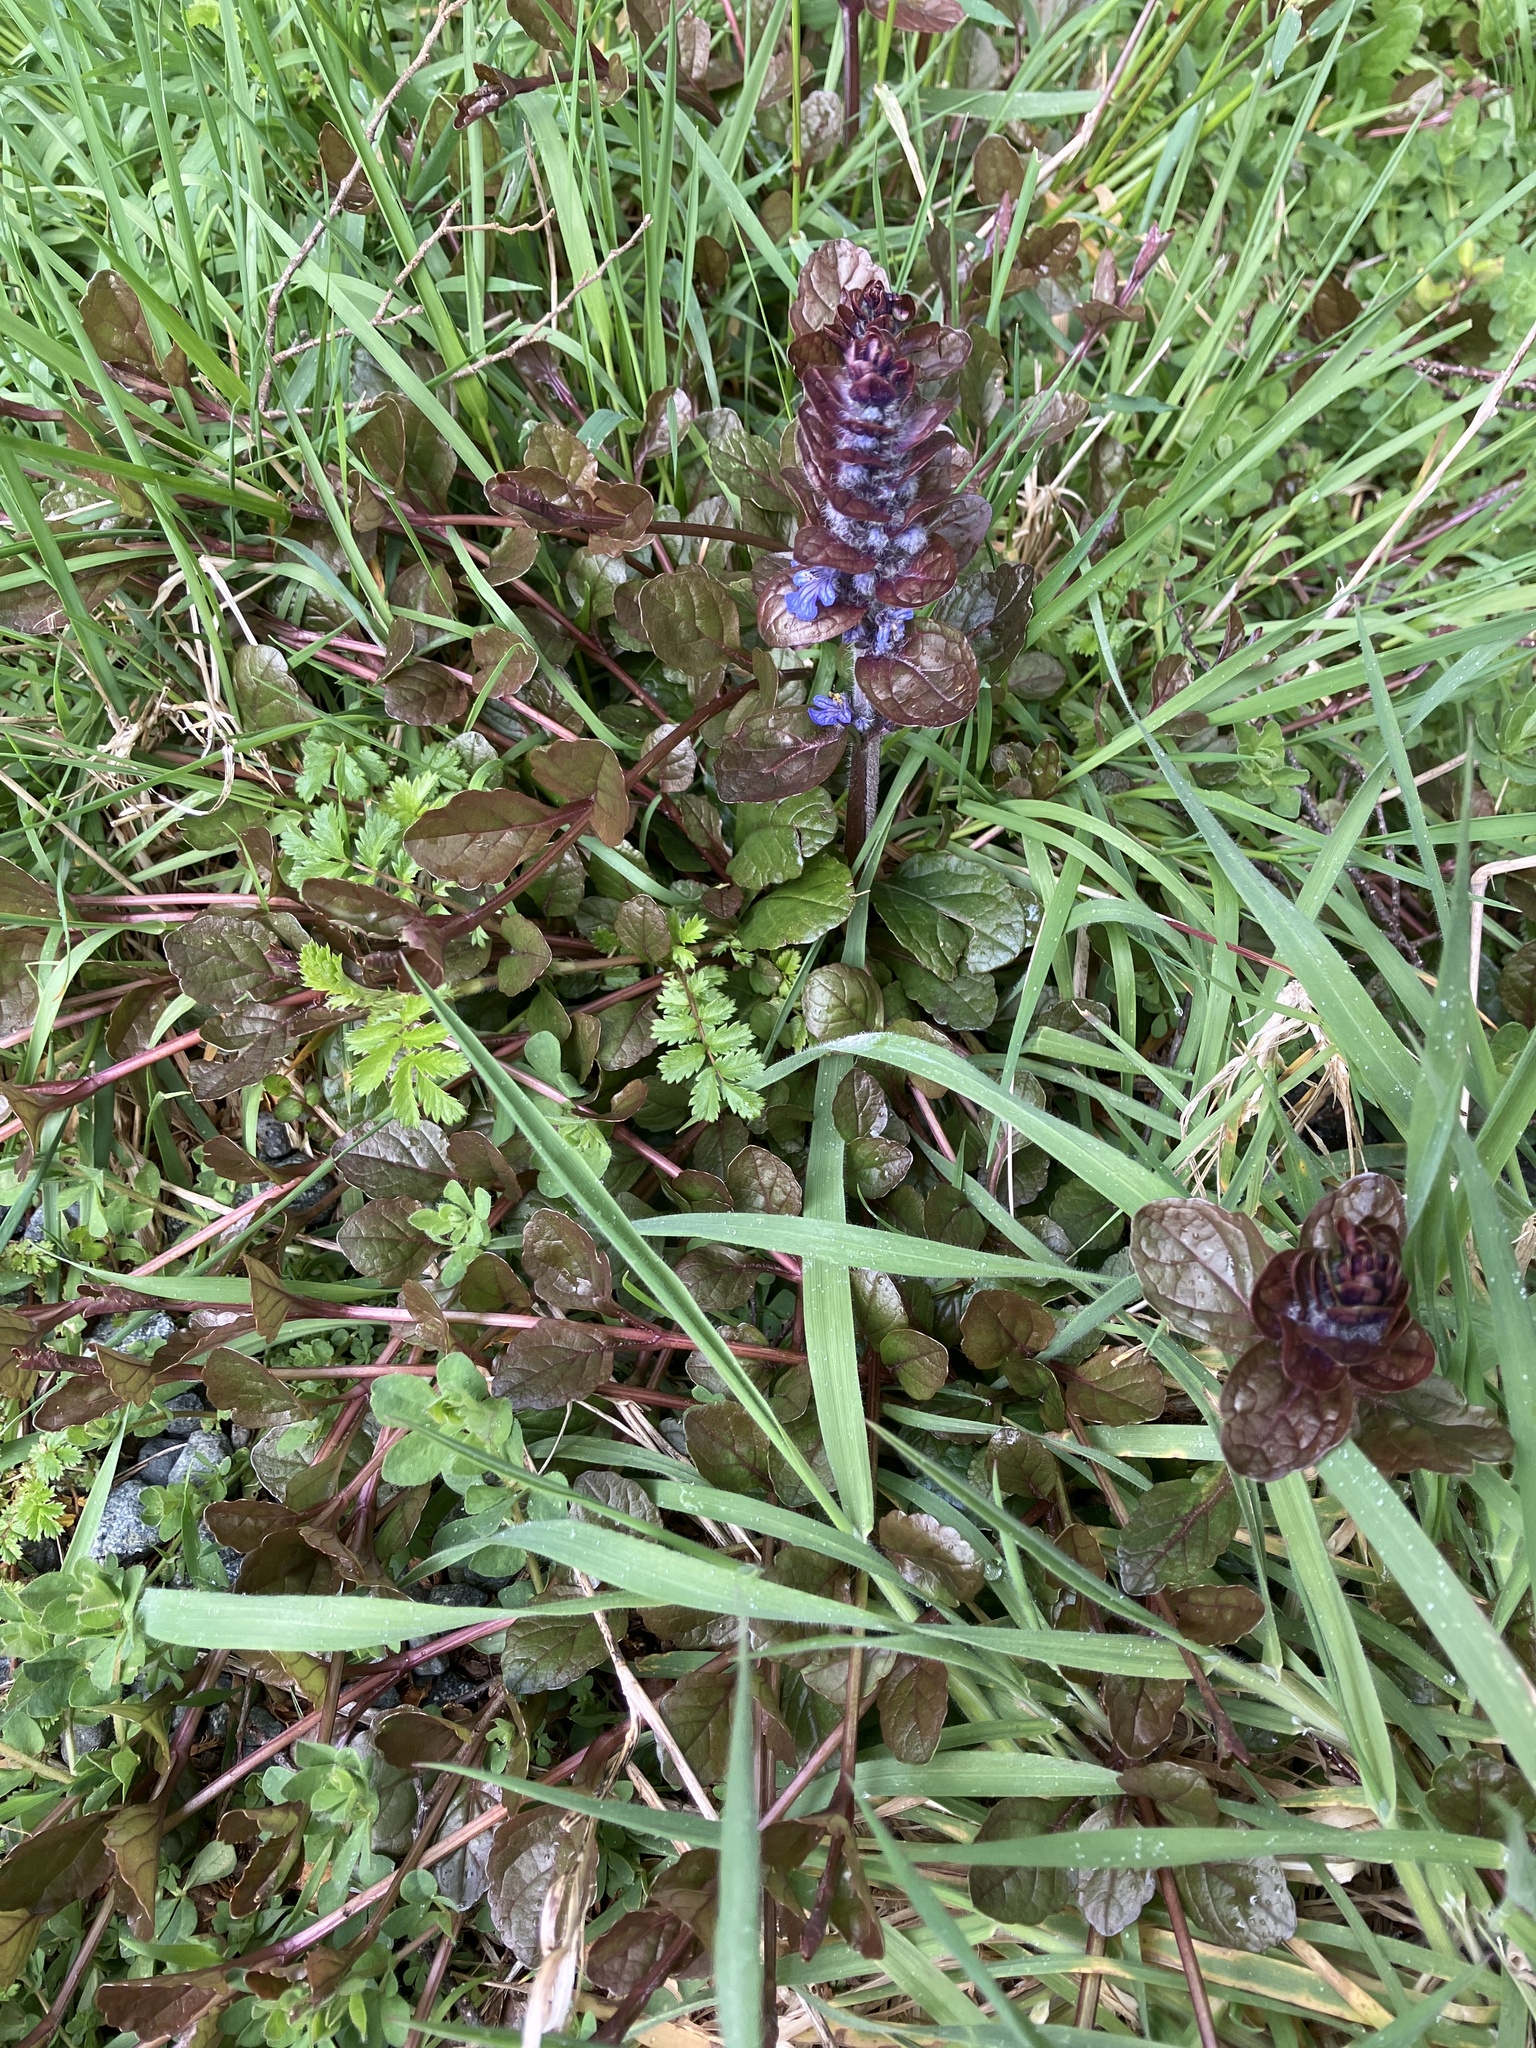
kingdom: Plantae
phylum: Tracheophyta
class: Magnoliopsida
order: Lamiales
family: Lamiaceae
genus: Ajuga
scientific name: Ajuga reptans
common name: Bugle
